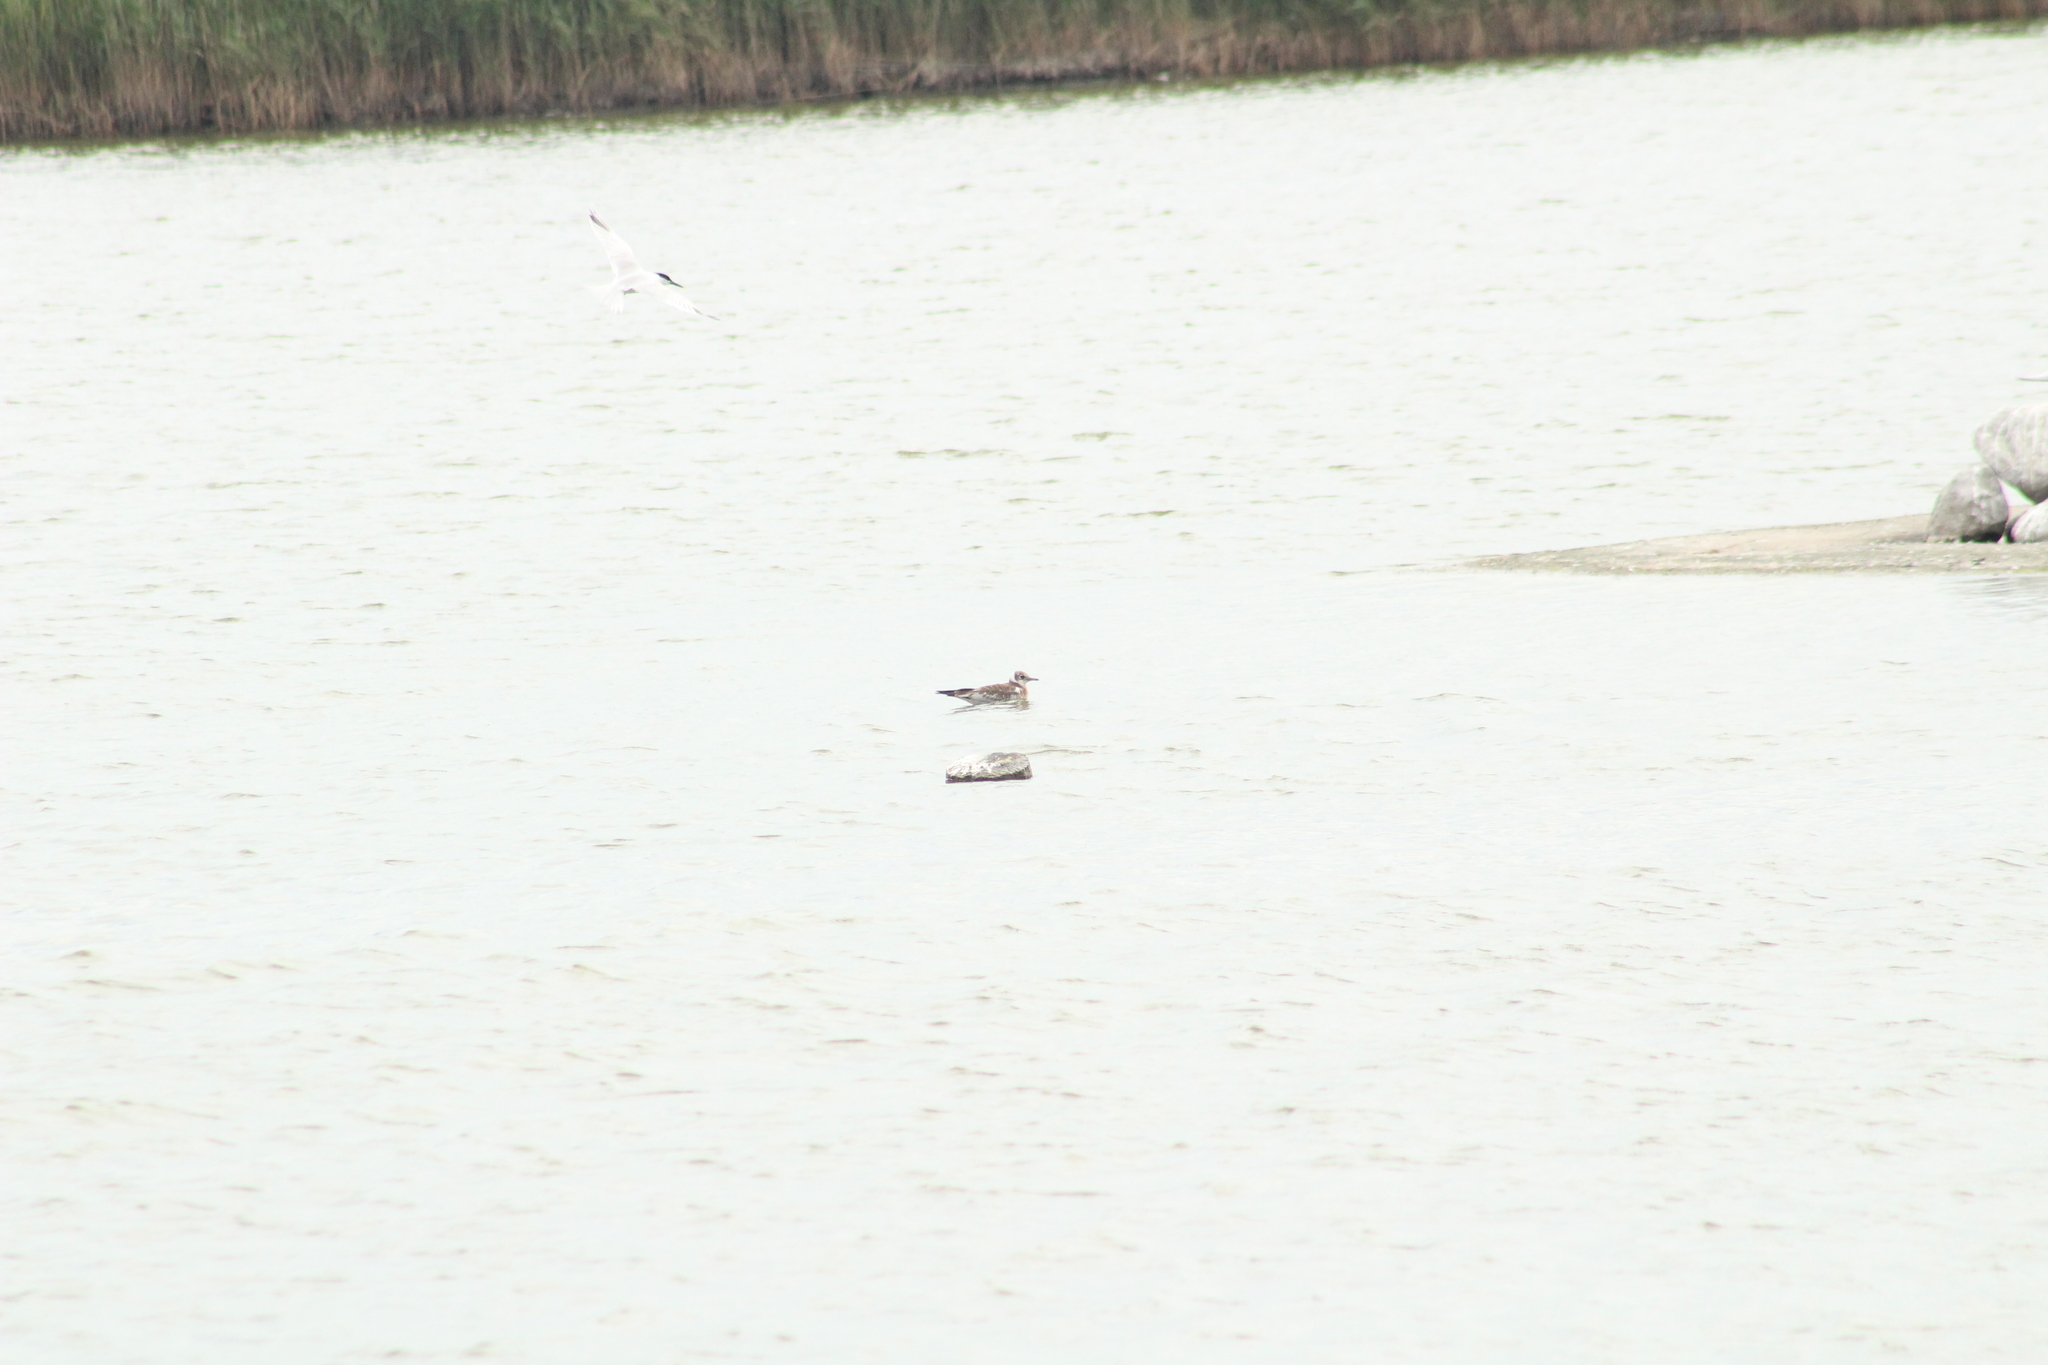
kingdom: Animalia
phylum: Chordata
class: Aves
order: Charadriiformes
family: Laridae
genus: Chroicocephalus
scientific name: Chroicocephalus ridibundus
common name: Black-headed gull
